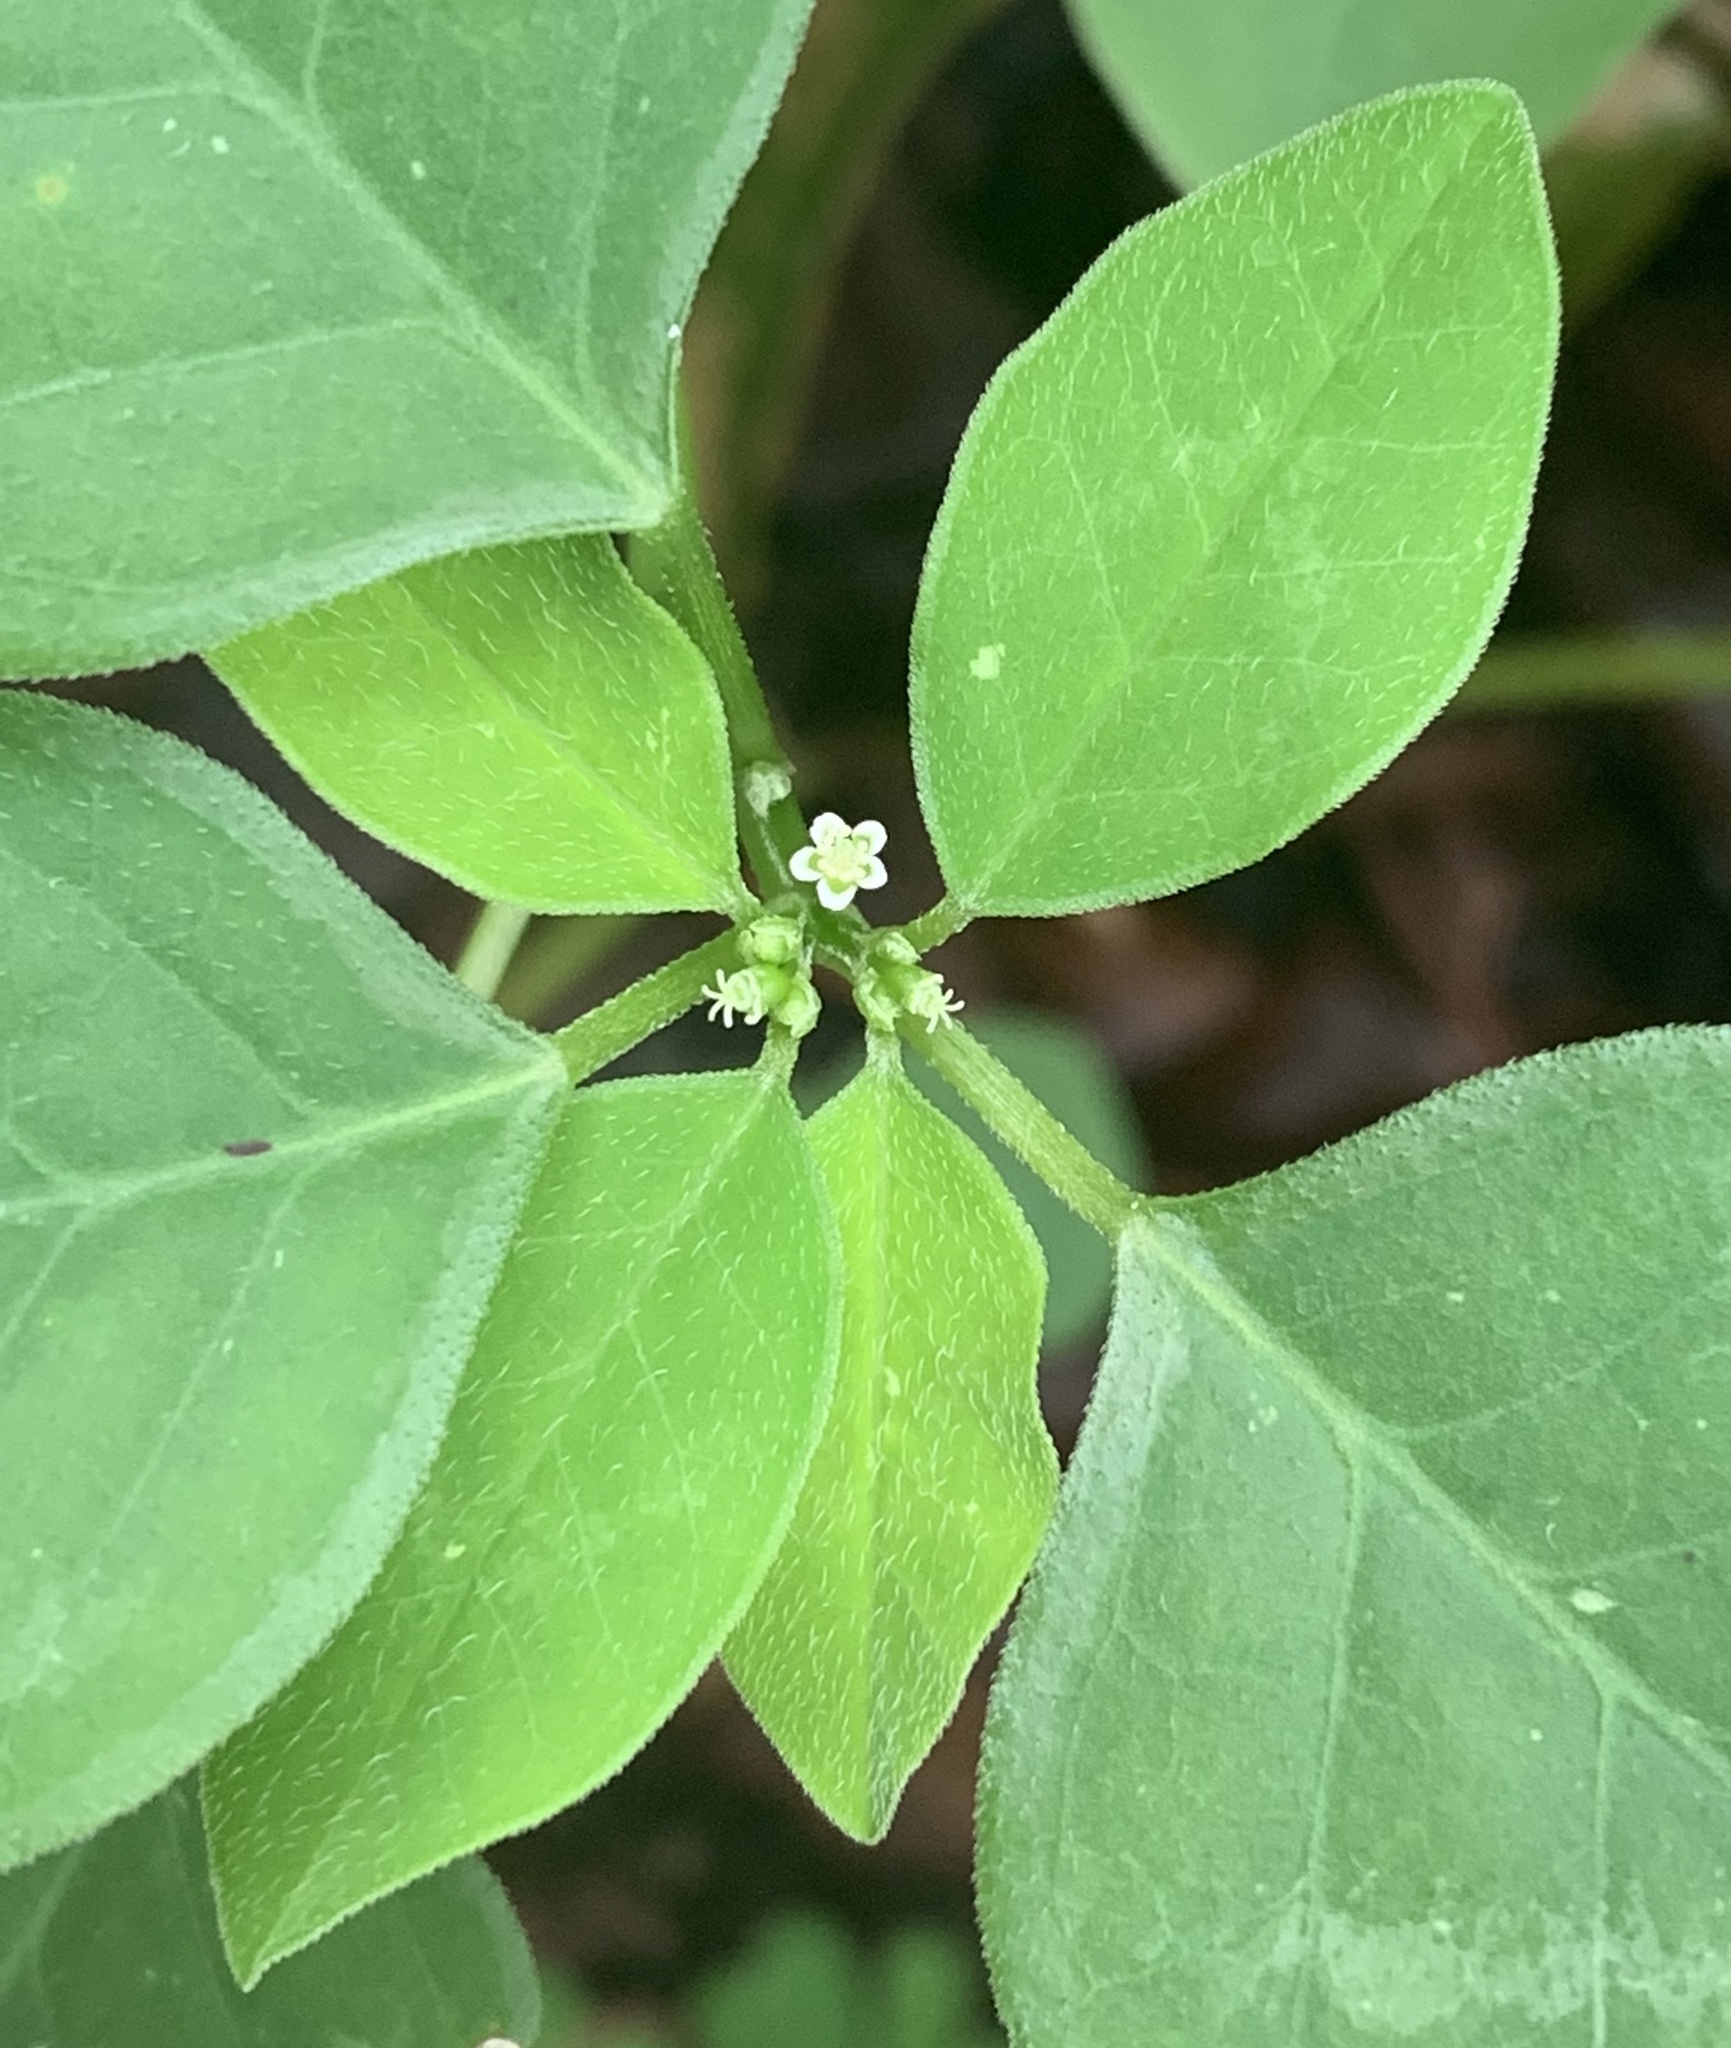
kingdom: Plantae
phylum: Tracheophyta
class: Magnoliopsida
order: Malpighiales
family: Euphorbiaceae
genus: Euphorbia
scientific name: Euphorbia graminea
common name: Grassleaf spurge
